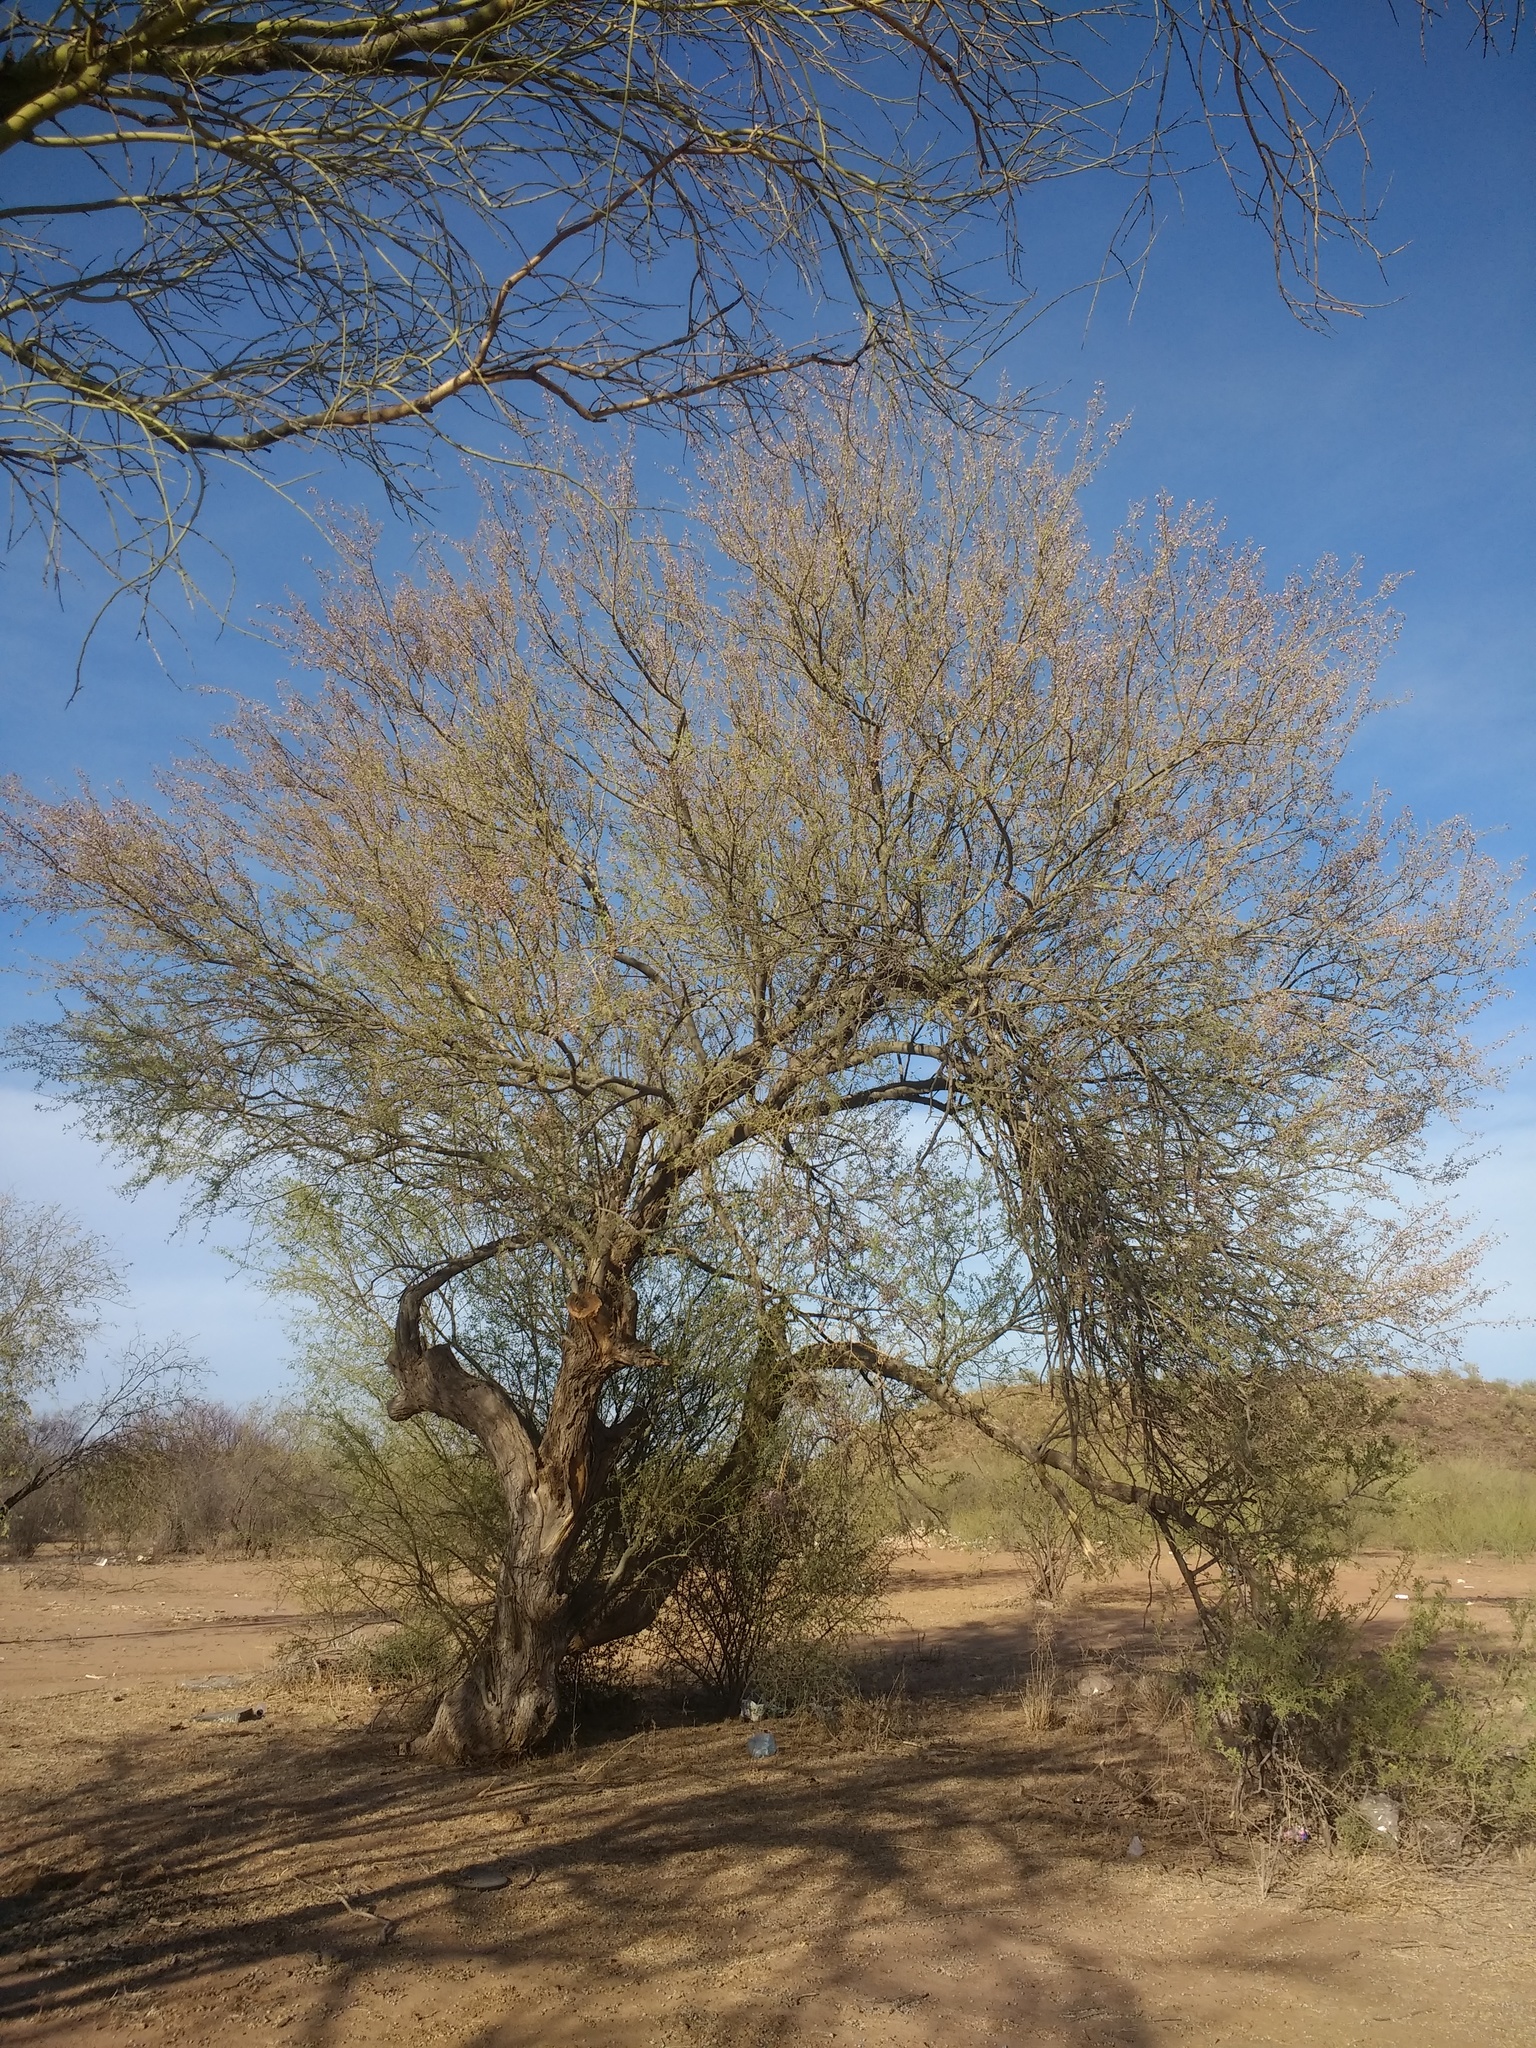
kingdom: Plantae
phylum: Tracheophyta
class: Magnoliopsida
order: Fabales
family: Fabaceae
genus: Olneya
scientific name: Olneya tesota
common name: Desert ironwood
